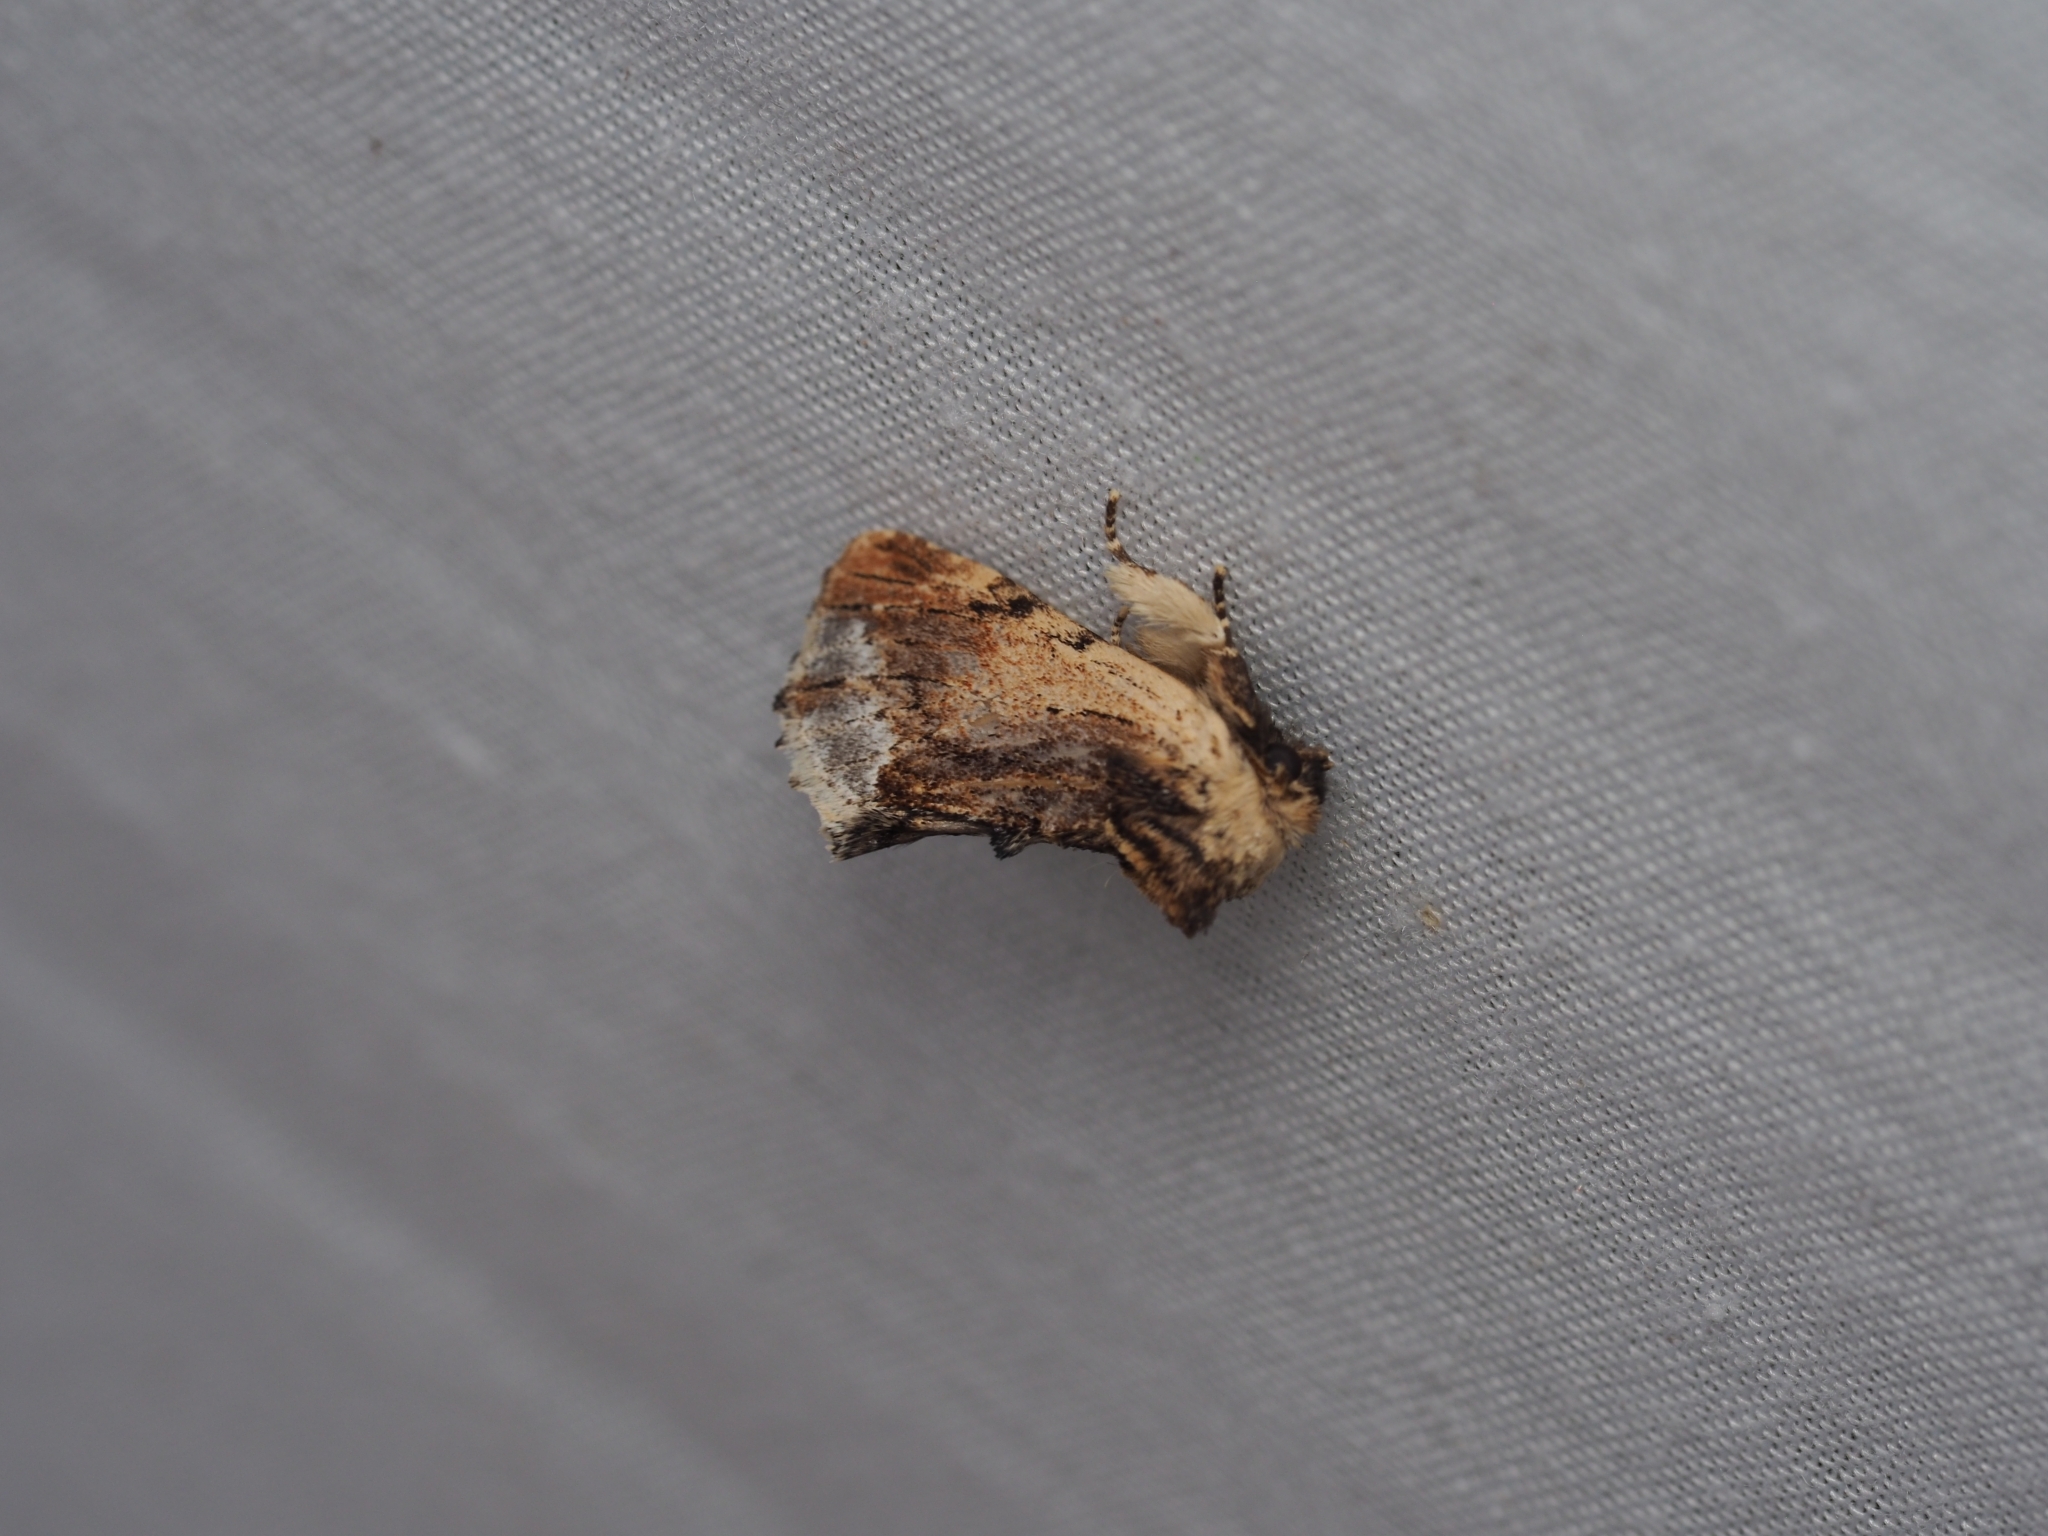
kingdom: Animalia
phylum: Arthropoda
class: Insecta
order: Lepidoptera
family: Notodontidae
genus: Ptilodon
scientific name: Ptilodon cucullina
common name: Maple prominent
